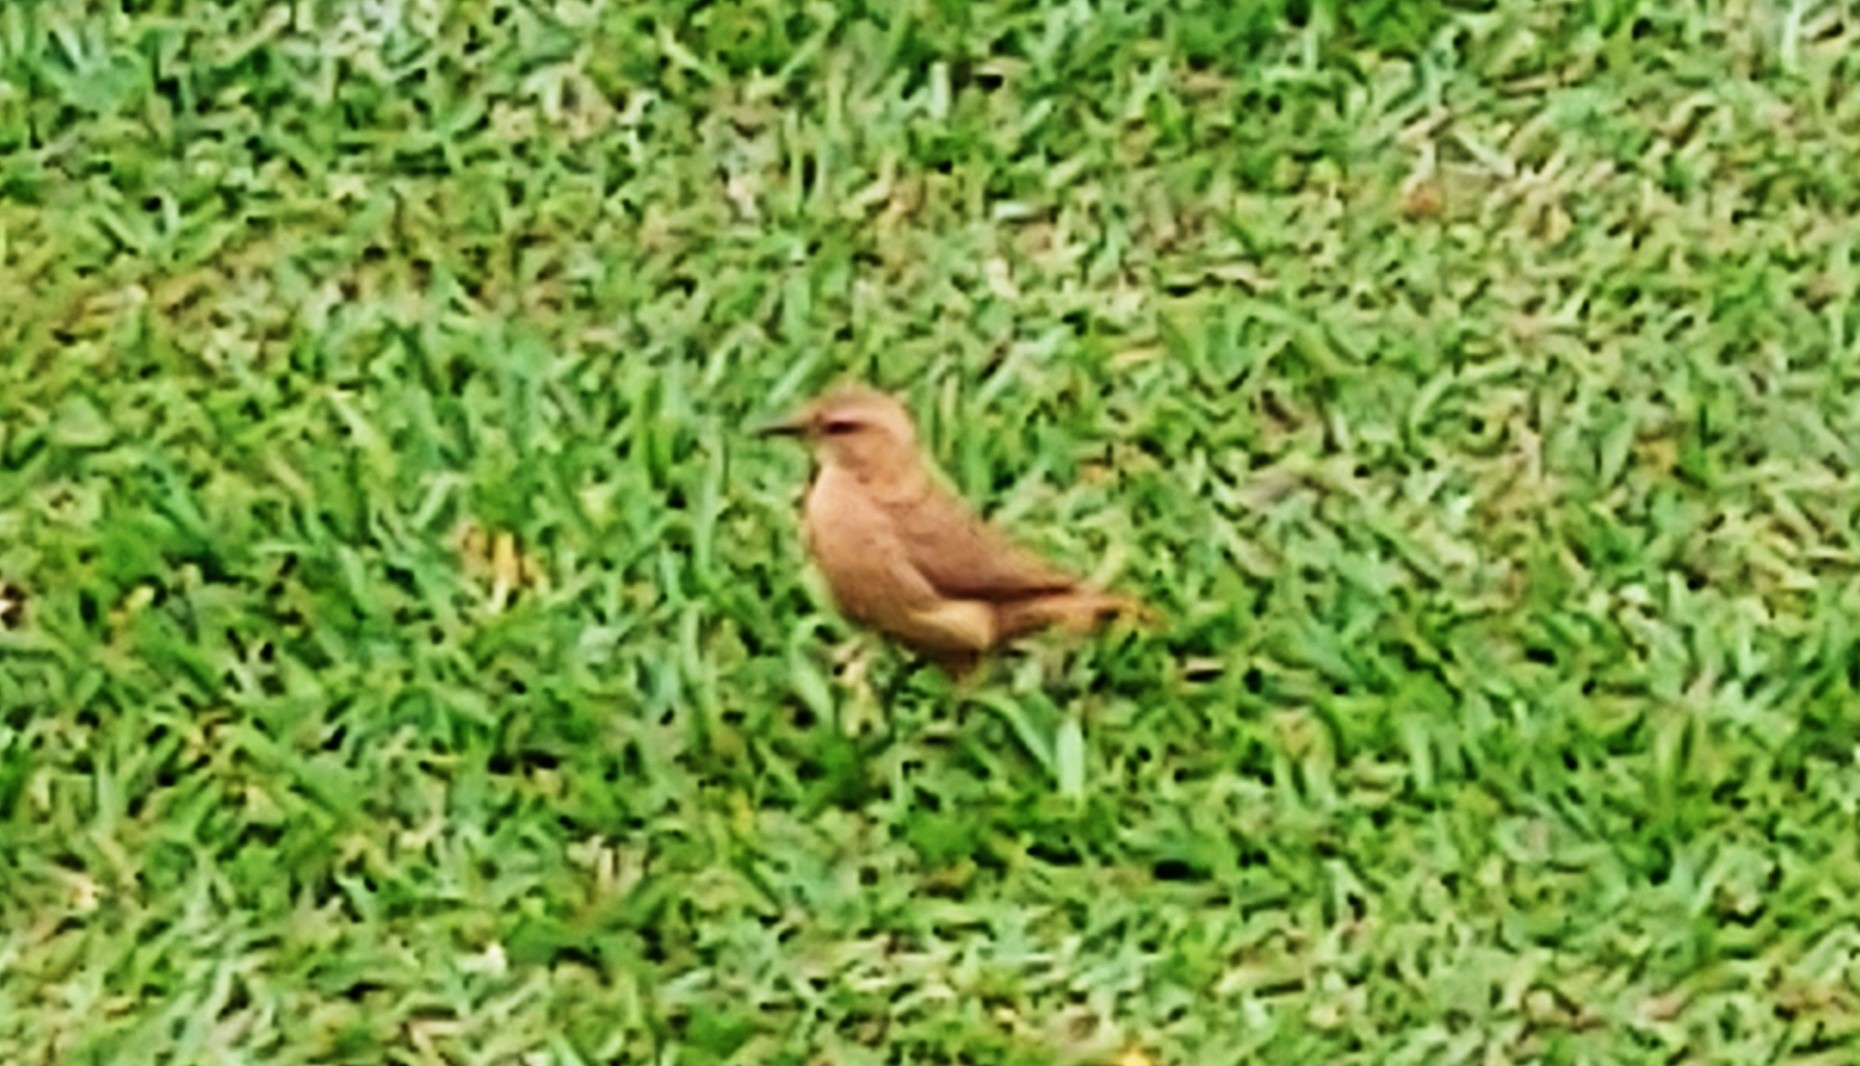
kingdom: Animalia
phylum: Chordata
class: Aves
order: Passeriformes
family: Furnariidae
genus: Furnarius
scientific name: Furnarius rufus
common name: Rufous hornero
